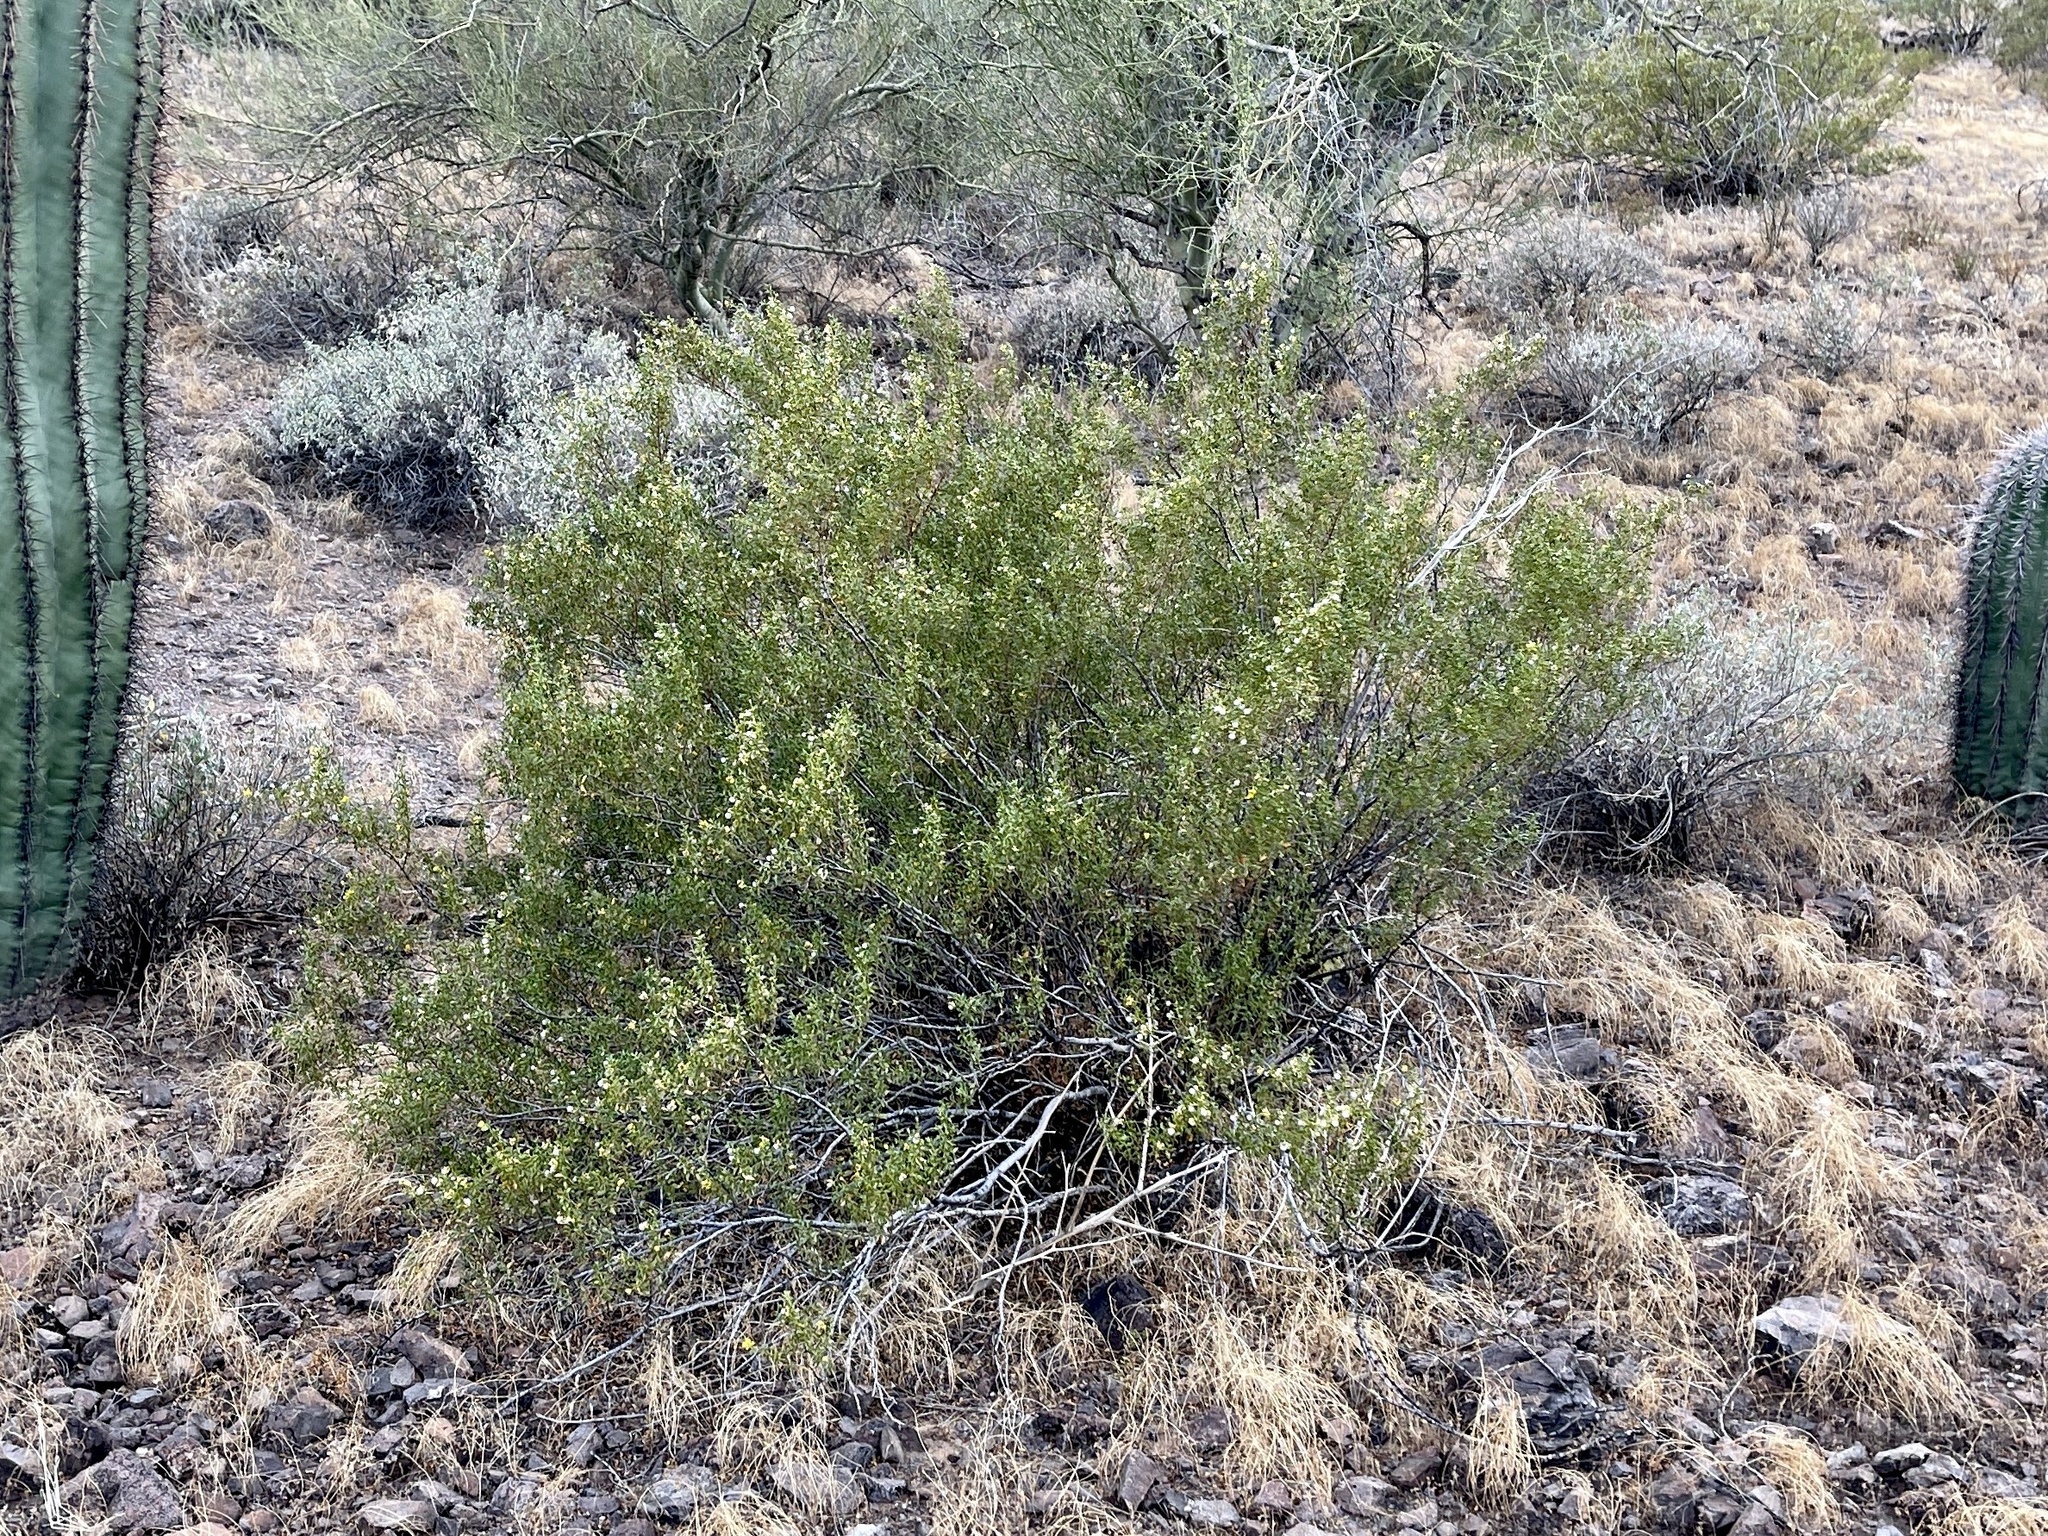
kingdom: Plantae
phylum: Tracheophyta
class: Magnoliopsida
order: Zygophyllales
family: Zygophyllaceae
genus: Larrea
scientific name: Larrea tridentata
